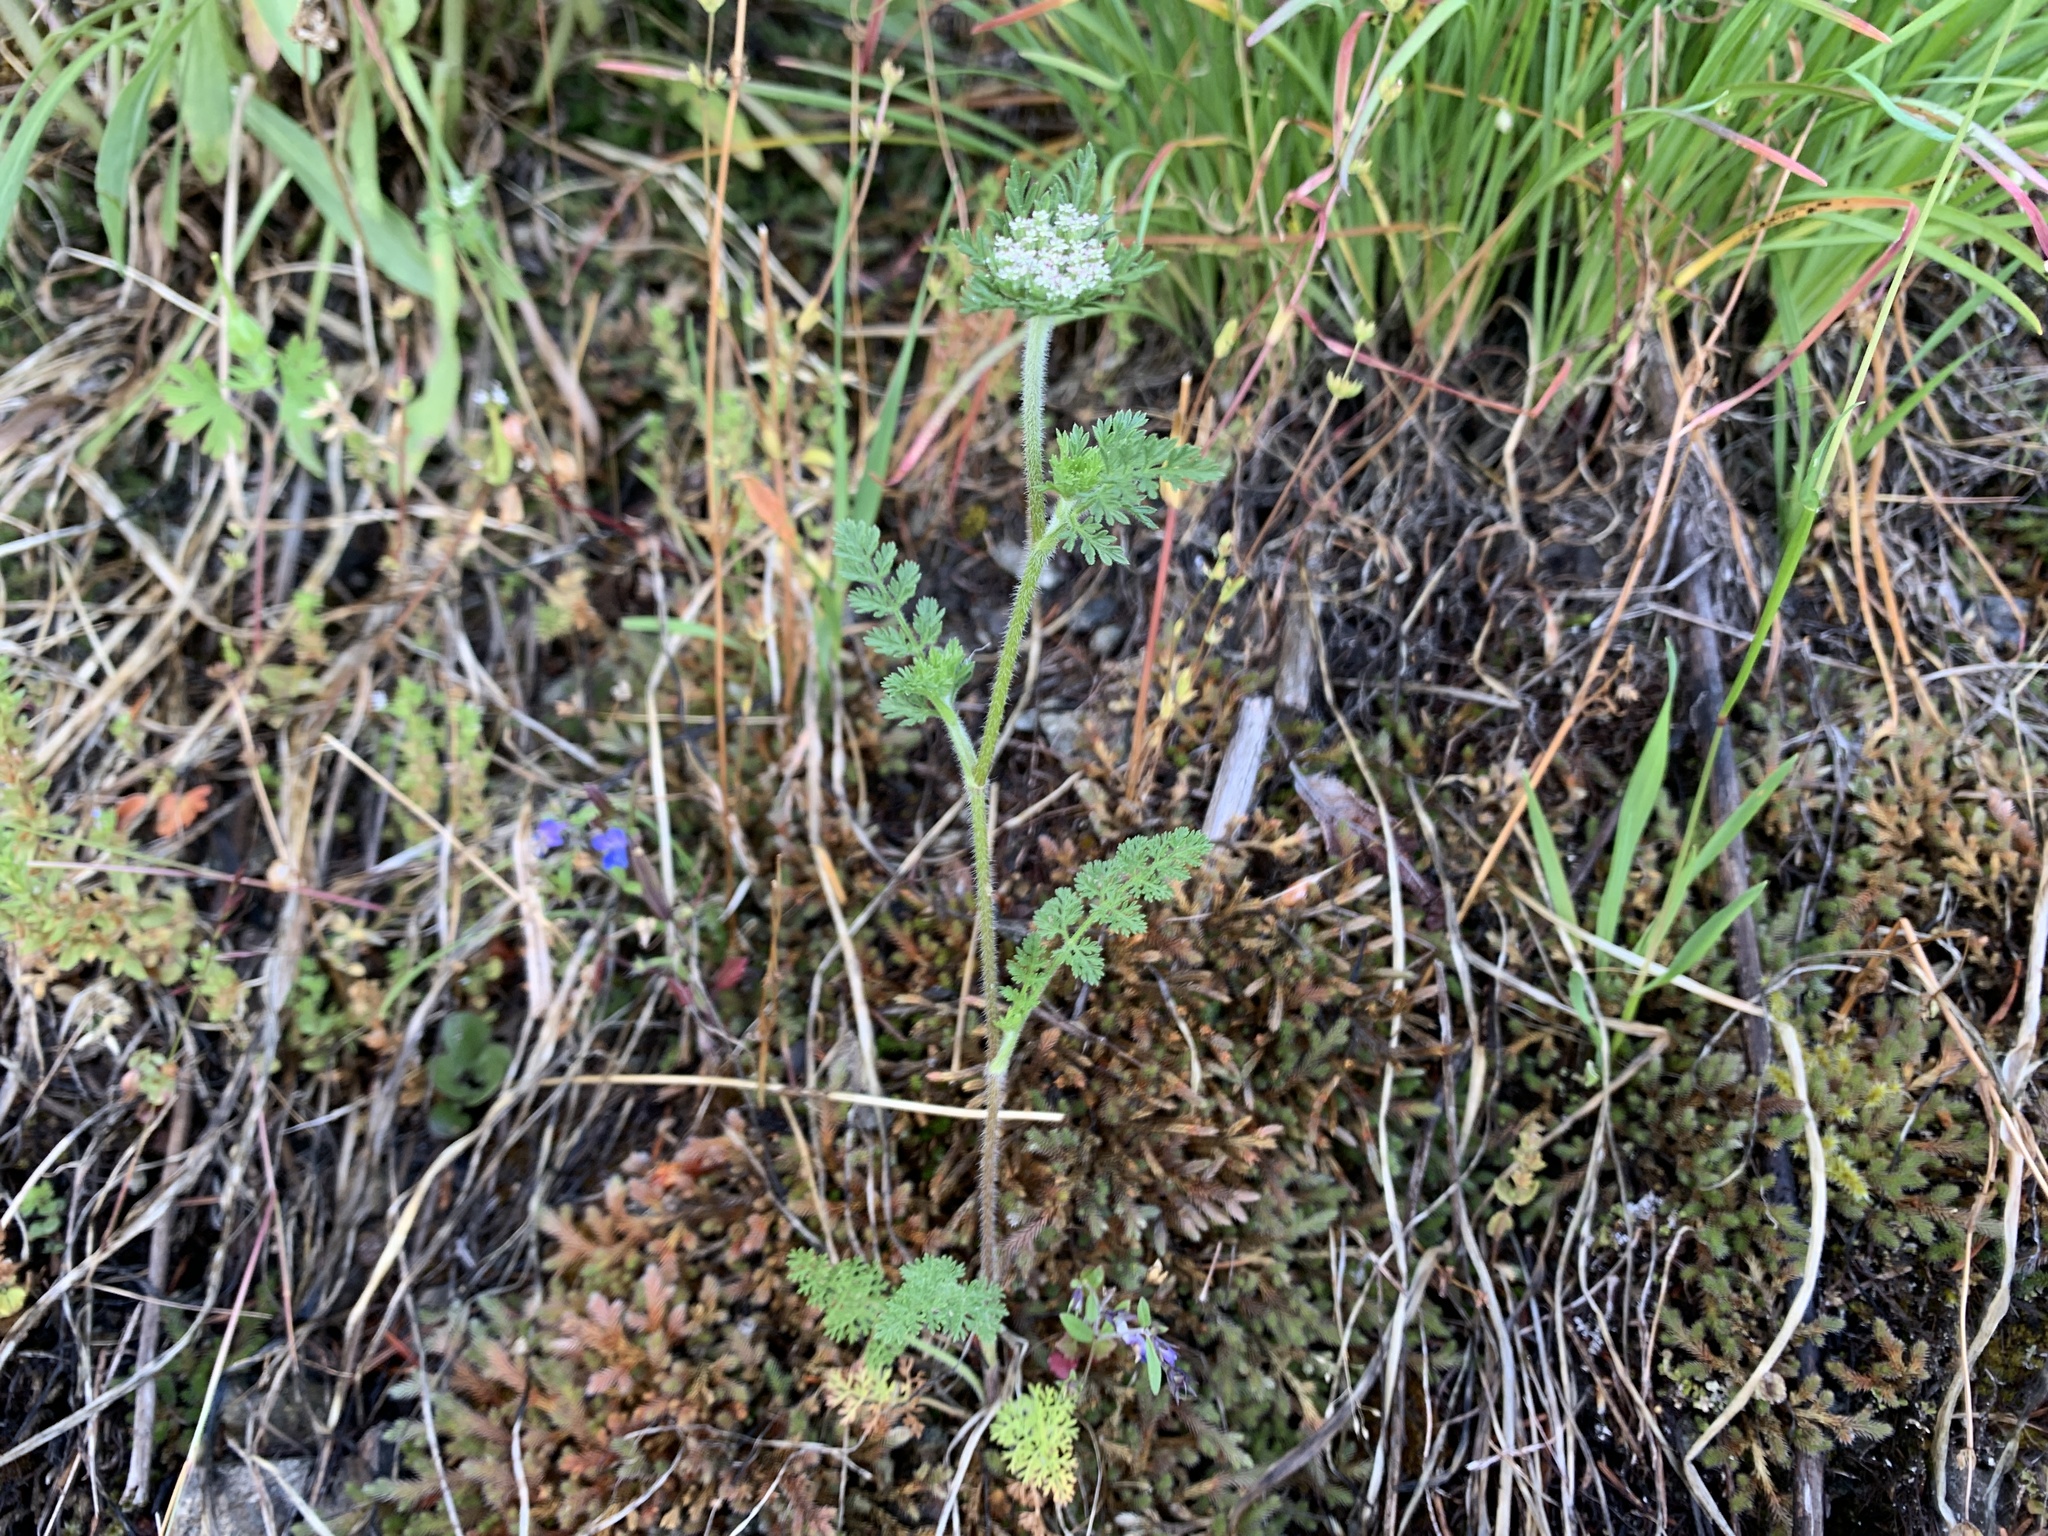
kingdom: Plantae
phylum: Tracheophyta
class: Magnoliopsida
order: Apiales
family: Apiaceae
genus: Daucus
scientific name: Daucus pusillus
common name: Southwest wild carrot
